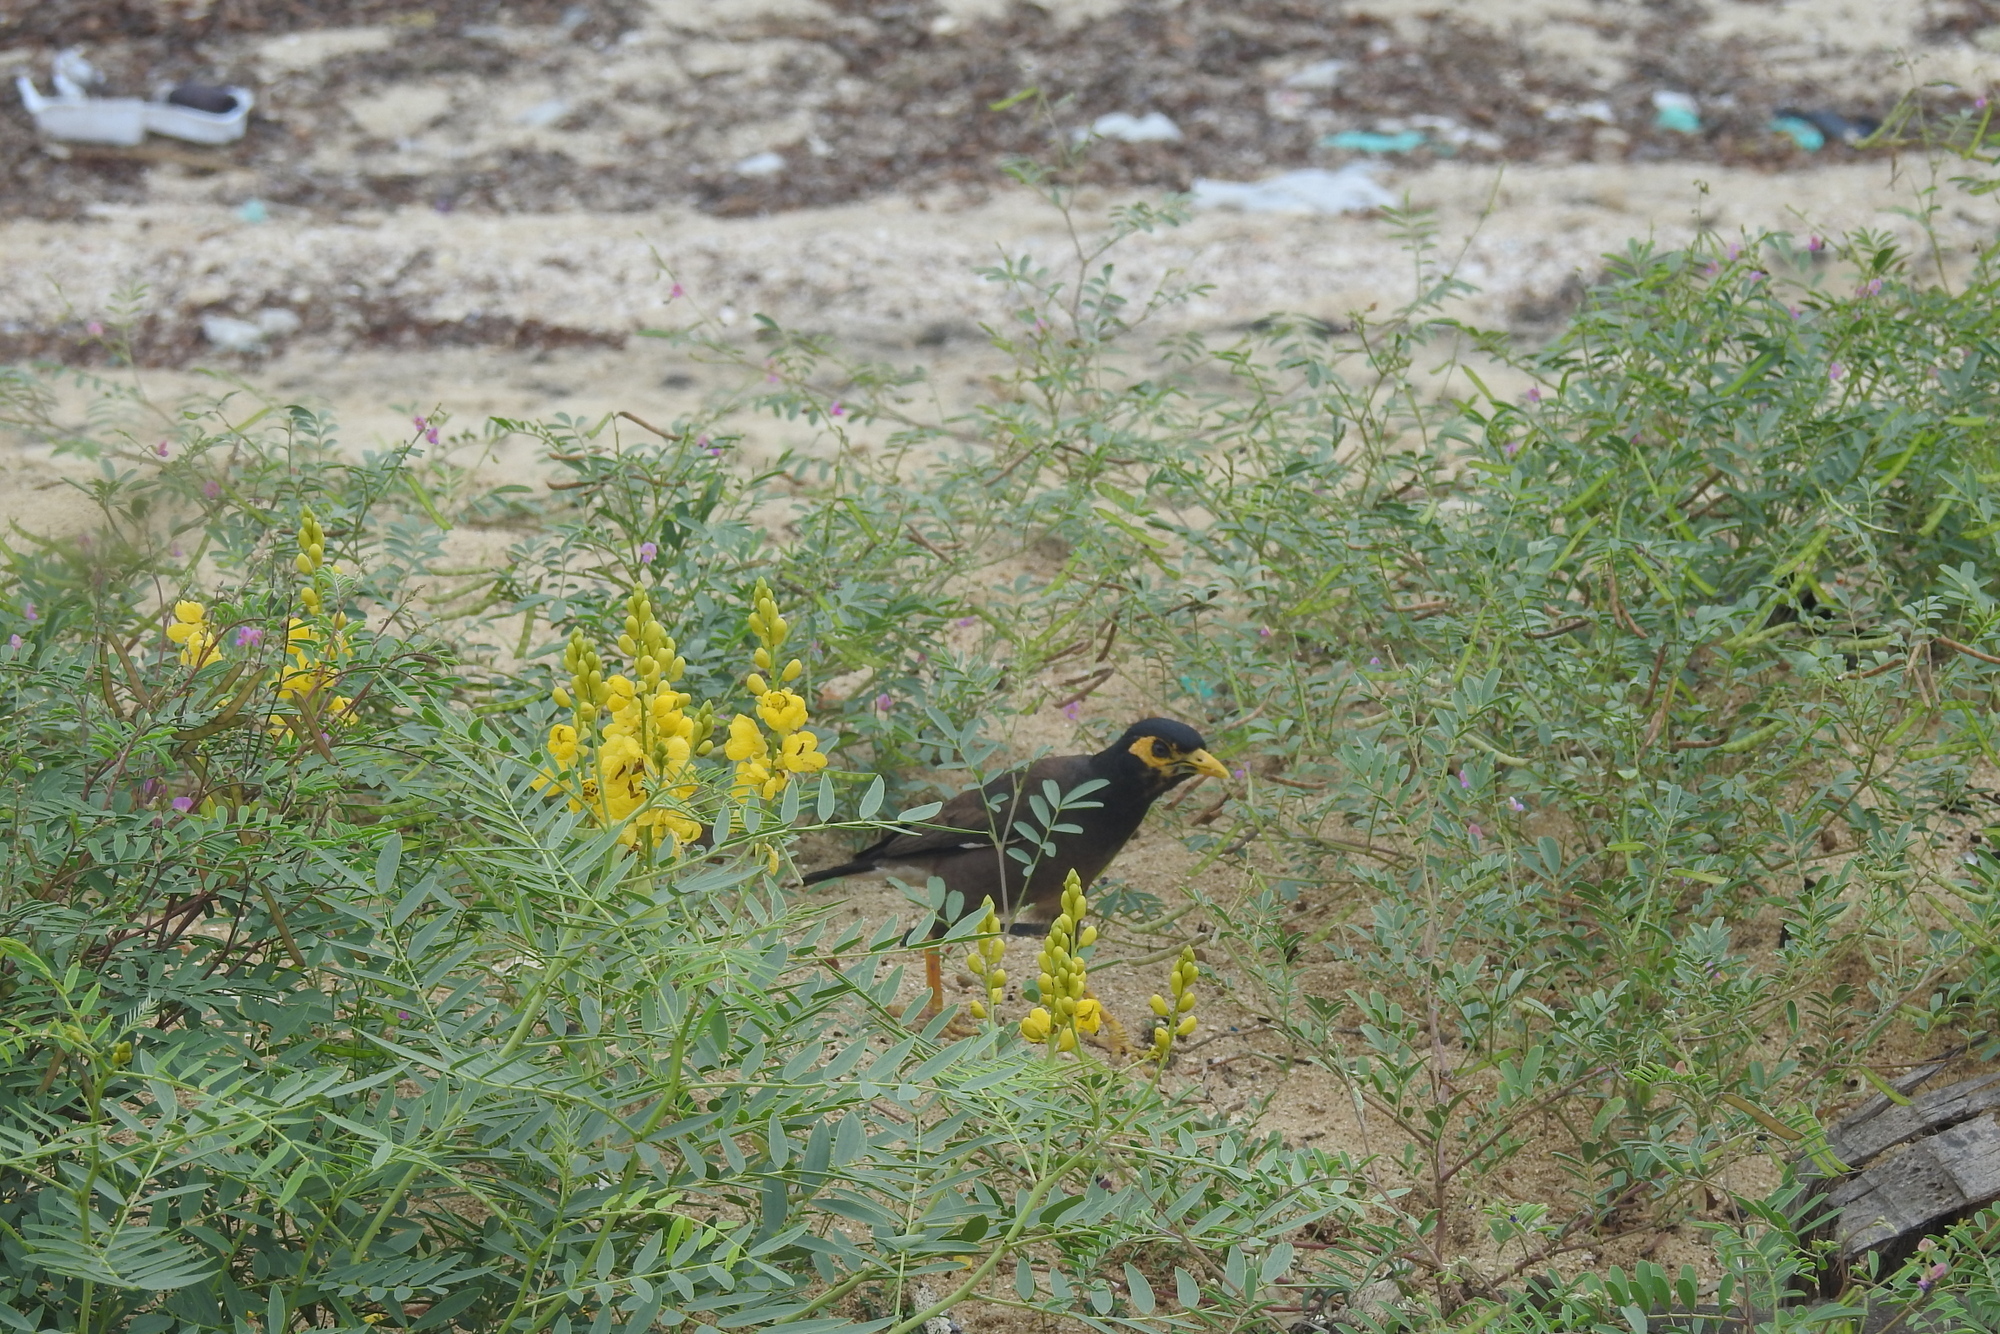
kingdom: Animalia
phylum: Chordata
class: Aves
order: Passeriformes
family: Sturnidae
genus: Acridotheres
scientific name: Acridotheres tristis
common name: Common myna
